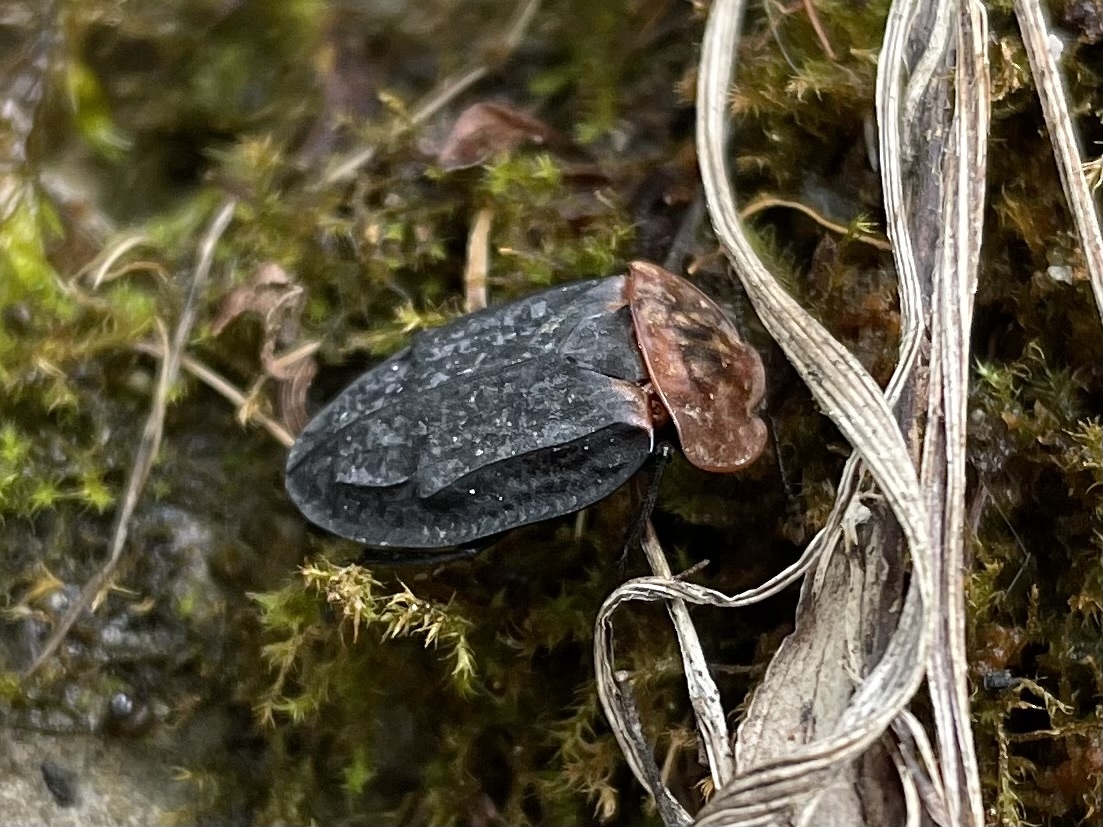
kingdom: Animalia
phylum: Arthropoda
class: Insecta
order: Coleoptera
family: Staphylinidae
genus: Oiceoptoma
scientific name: Oiceoptoma thoracicum
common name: Red-breasted carrion beetle
